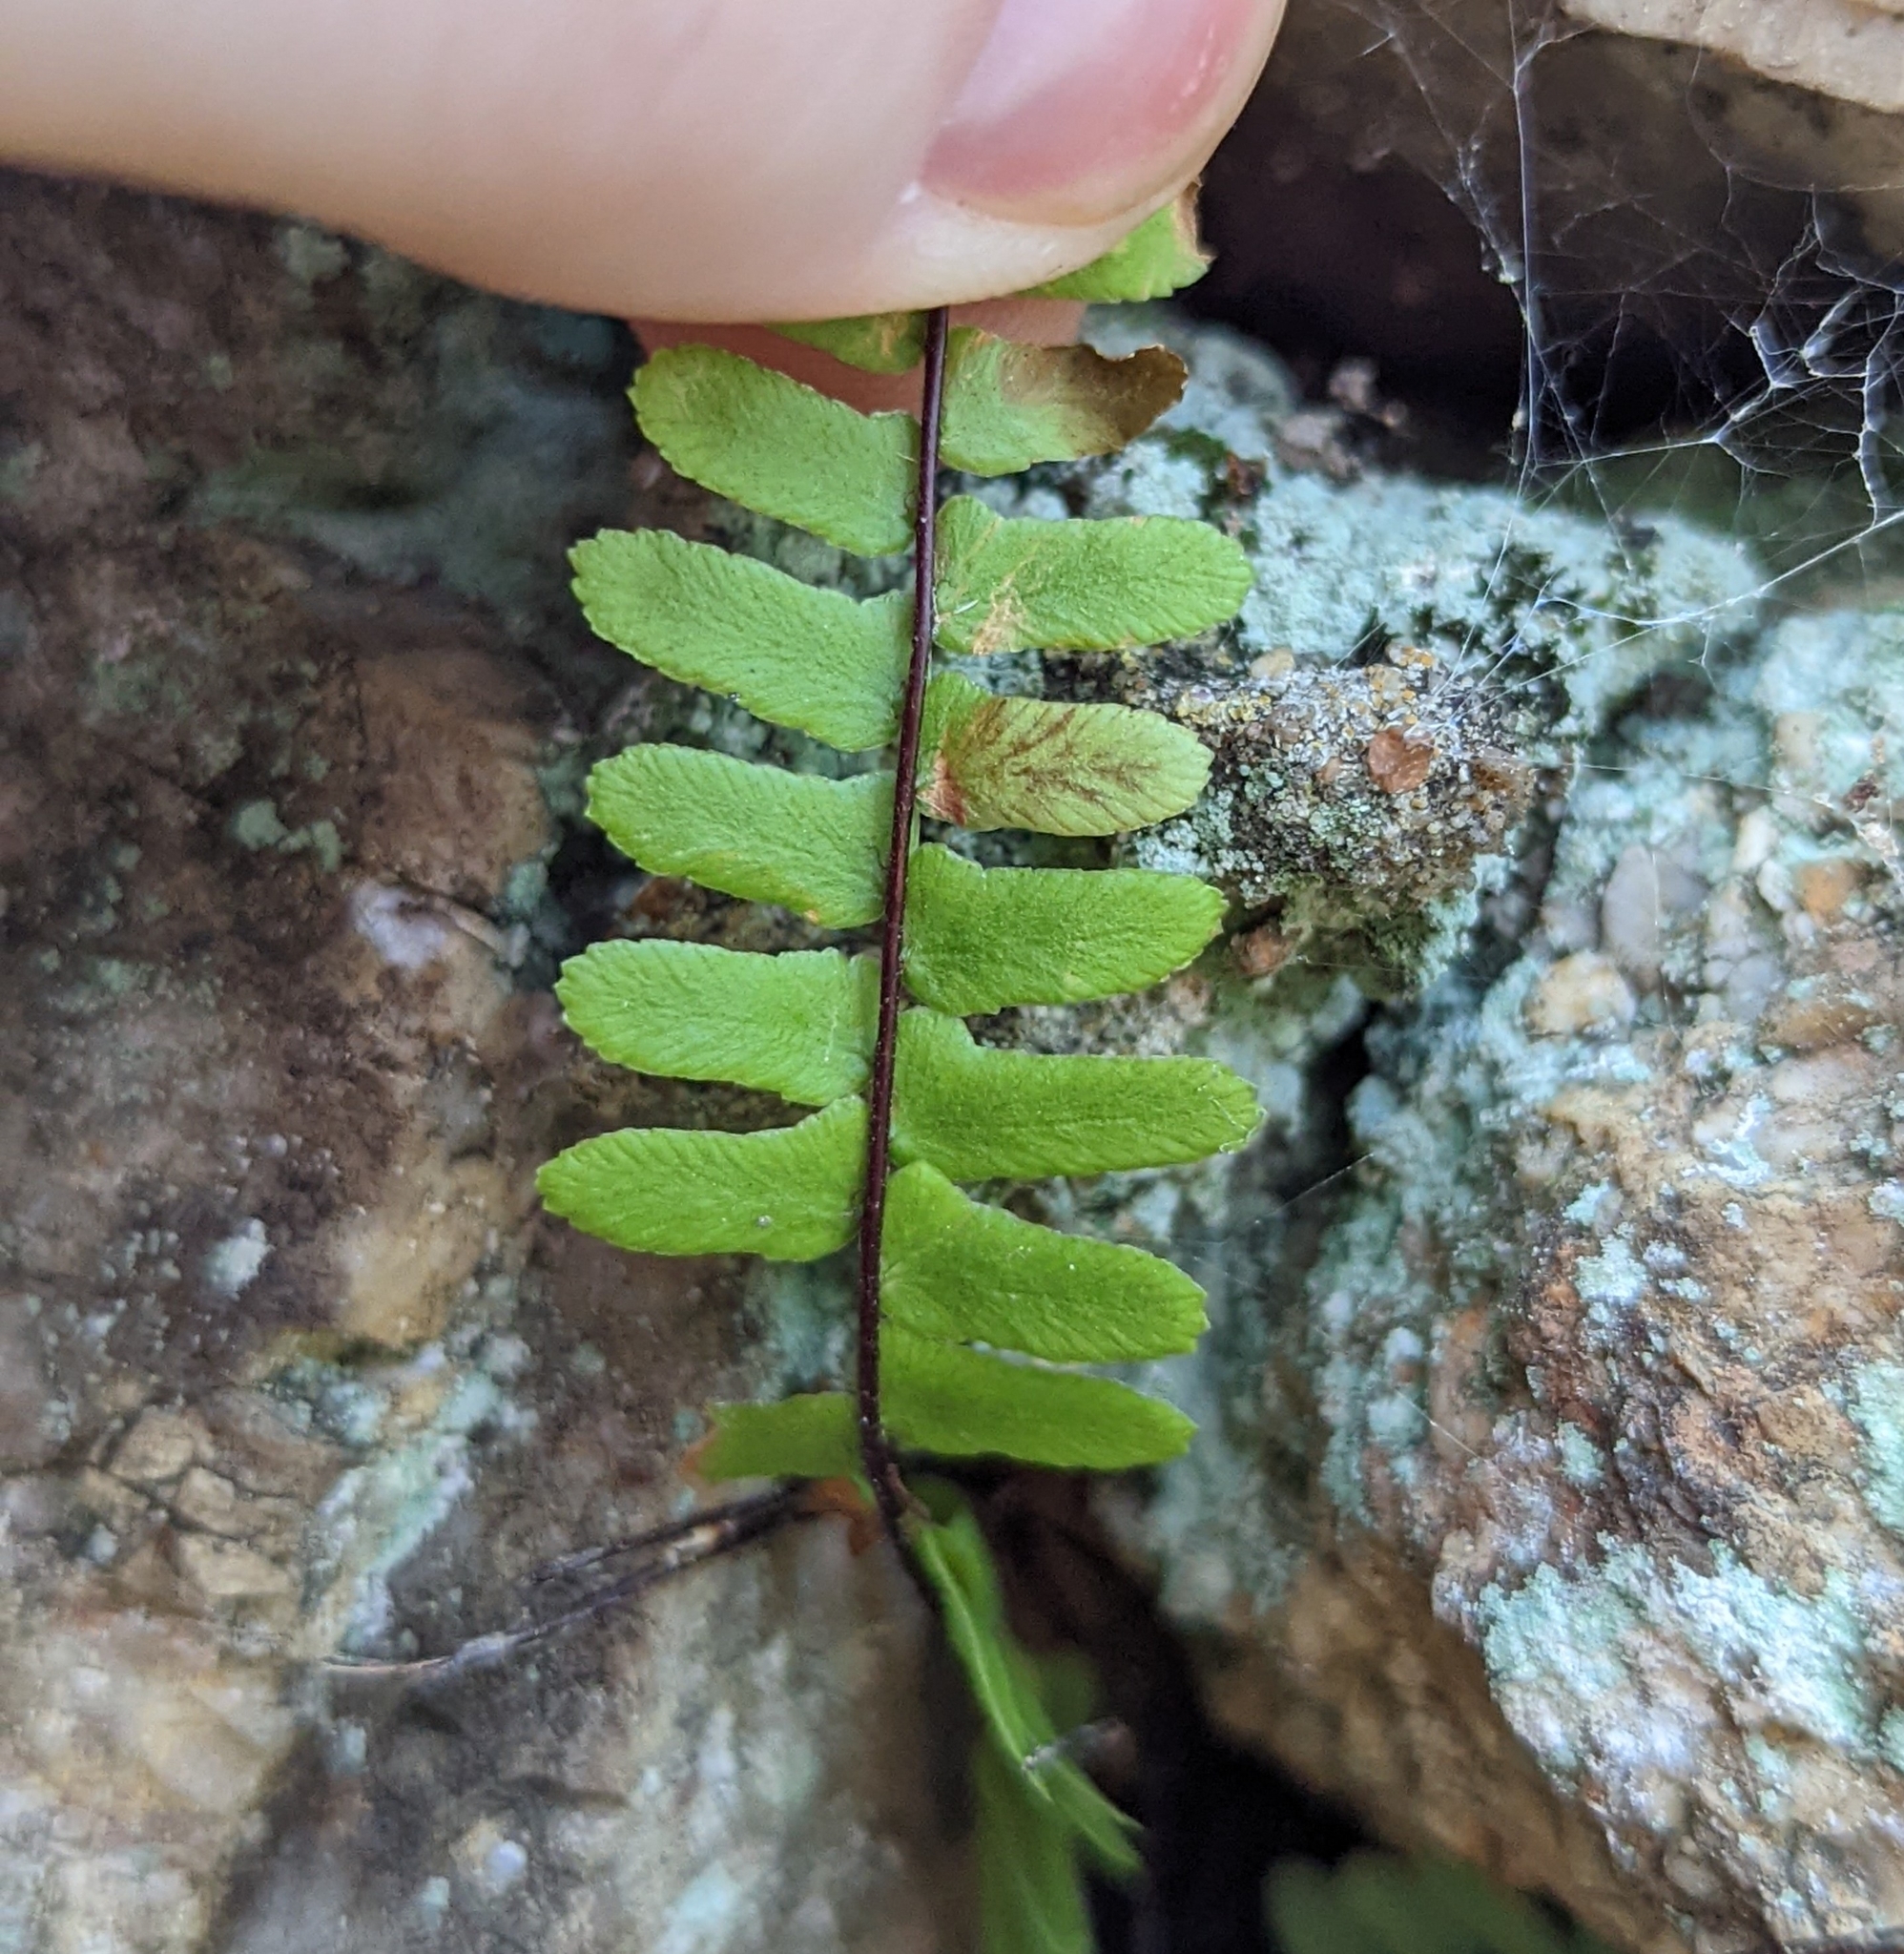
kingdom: Plantae
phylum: Tracheophyta
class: Polypodiopsida
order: Polypodiales
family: Aspleniaceae
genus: Asplenium
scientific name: Asplenium platyneuron
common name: Ebony spleenwort
